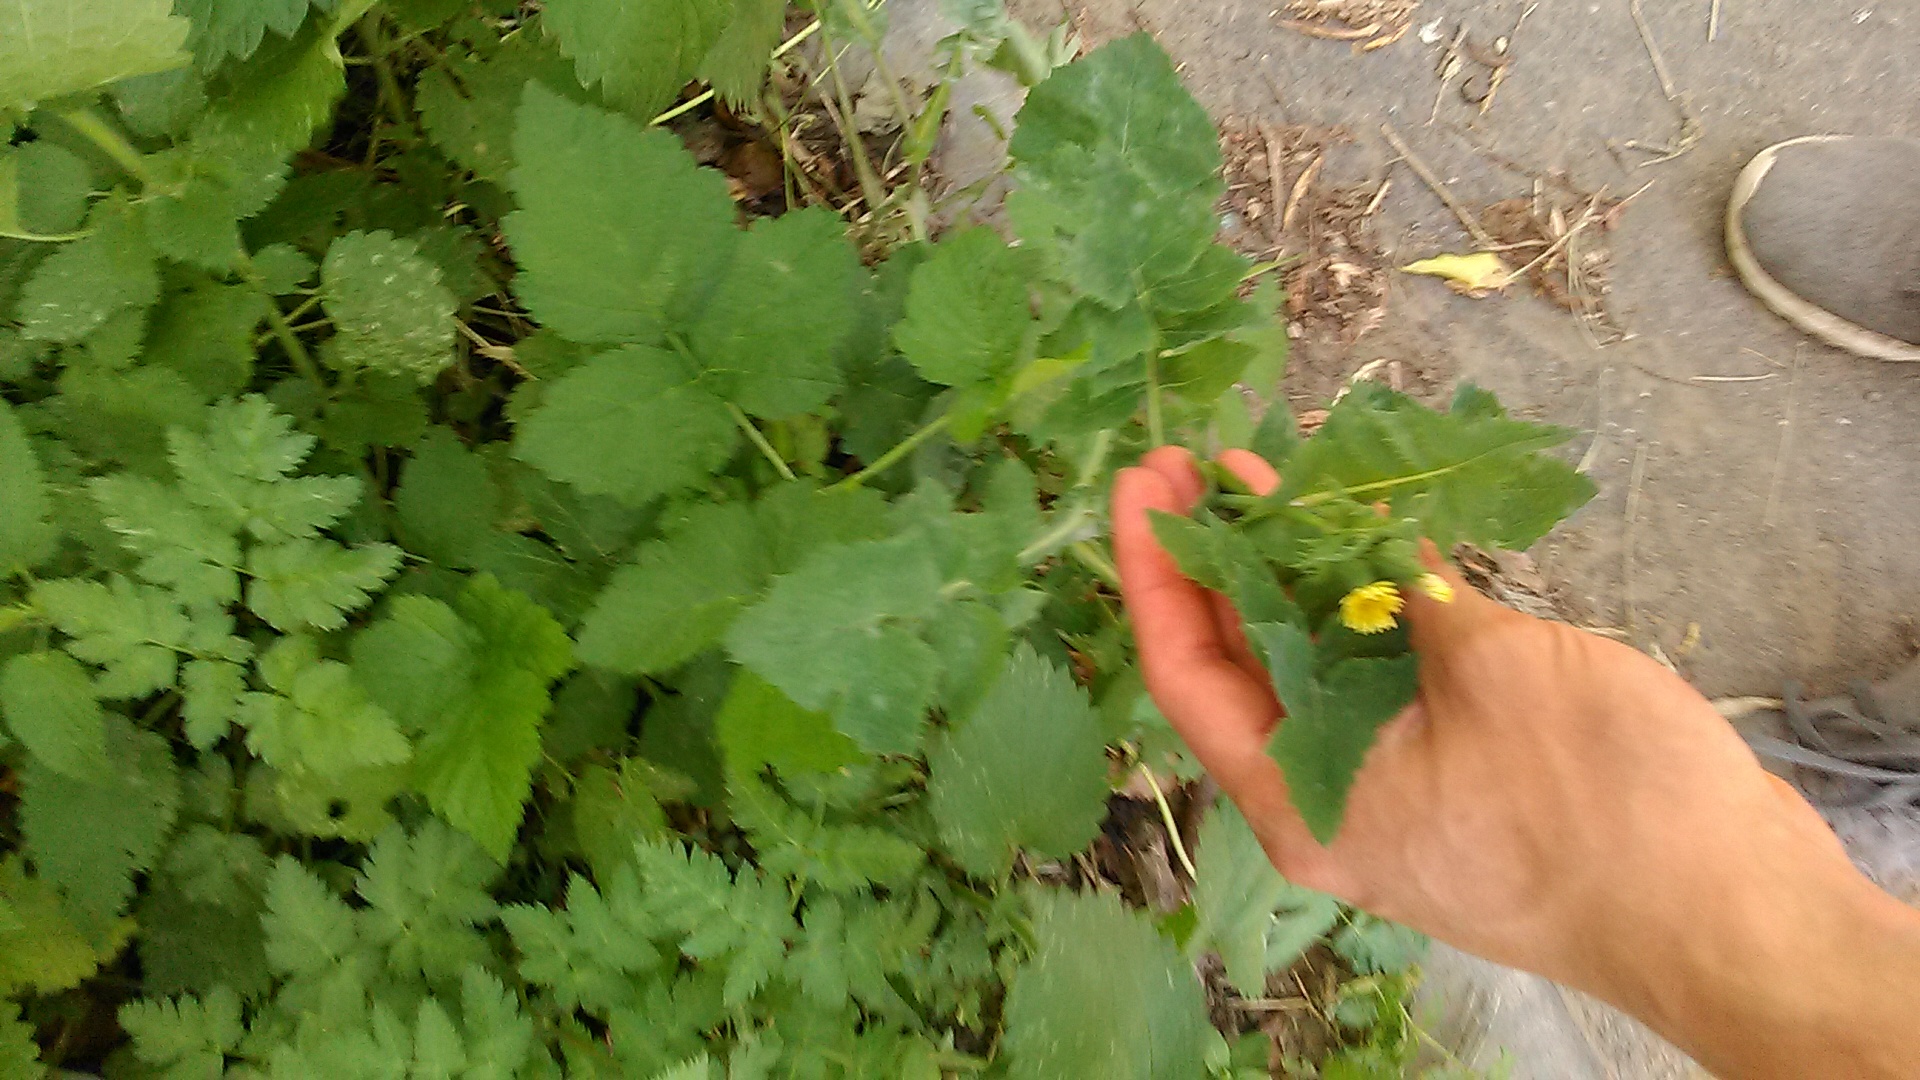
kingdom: Plantae
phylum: Tracheophyta
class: Magnoliopsida
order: Asterales
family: Asteraceae
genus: Sonchus
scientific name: Sonchus oleraceus
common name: Common sowthistle
